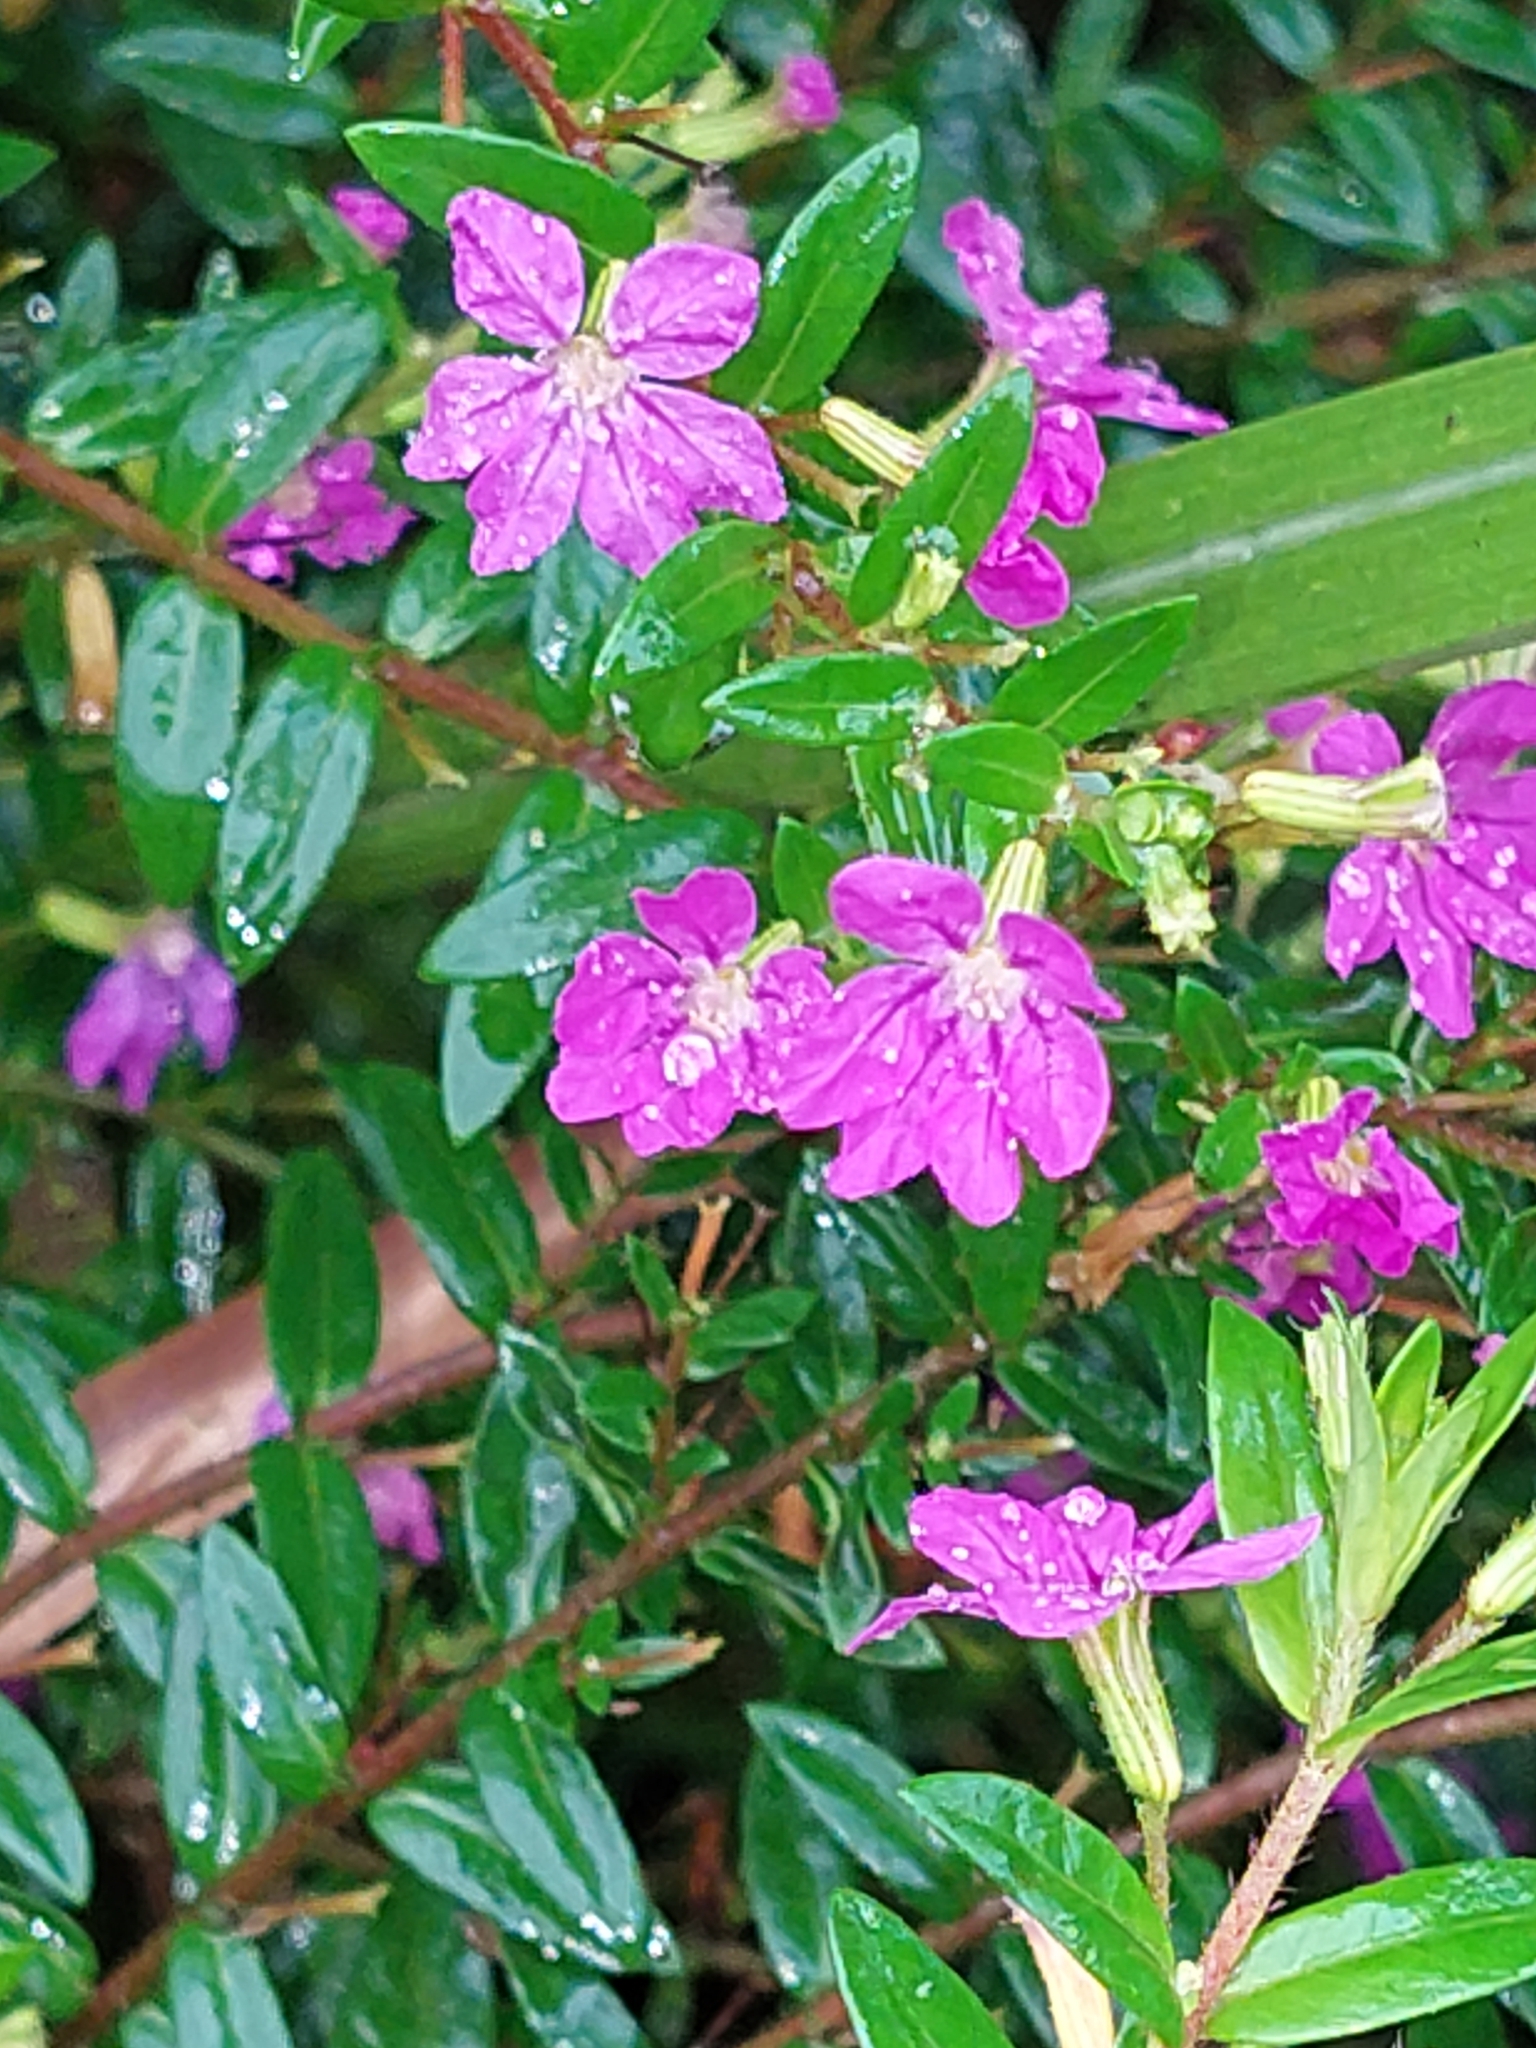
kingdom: Plantae
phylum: Tracheophyta
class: Magnoliopsida
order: Myrtales
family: Lythraceae
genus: Cuphea
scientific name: Cuphea hyssopifolia
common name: False heather
